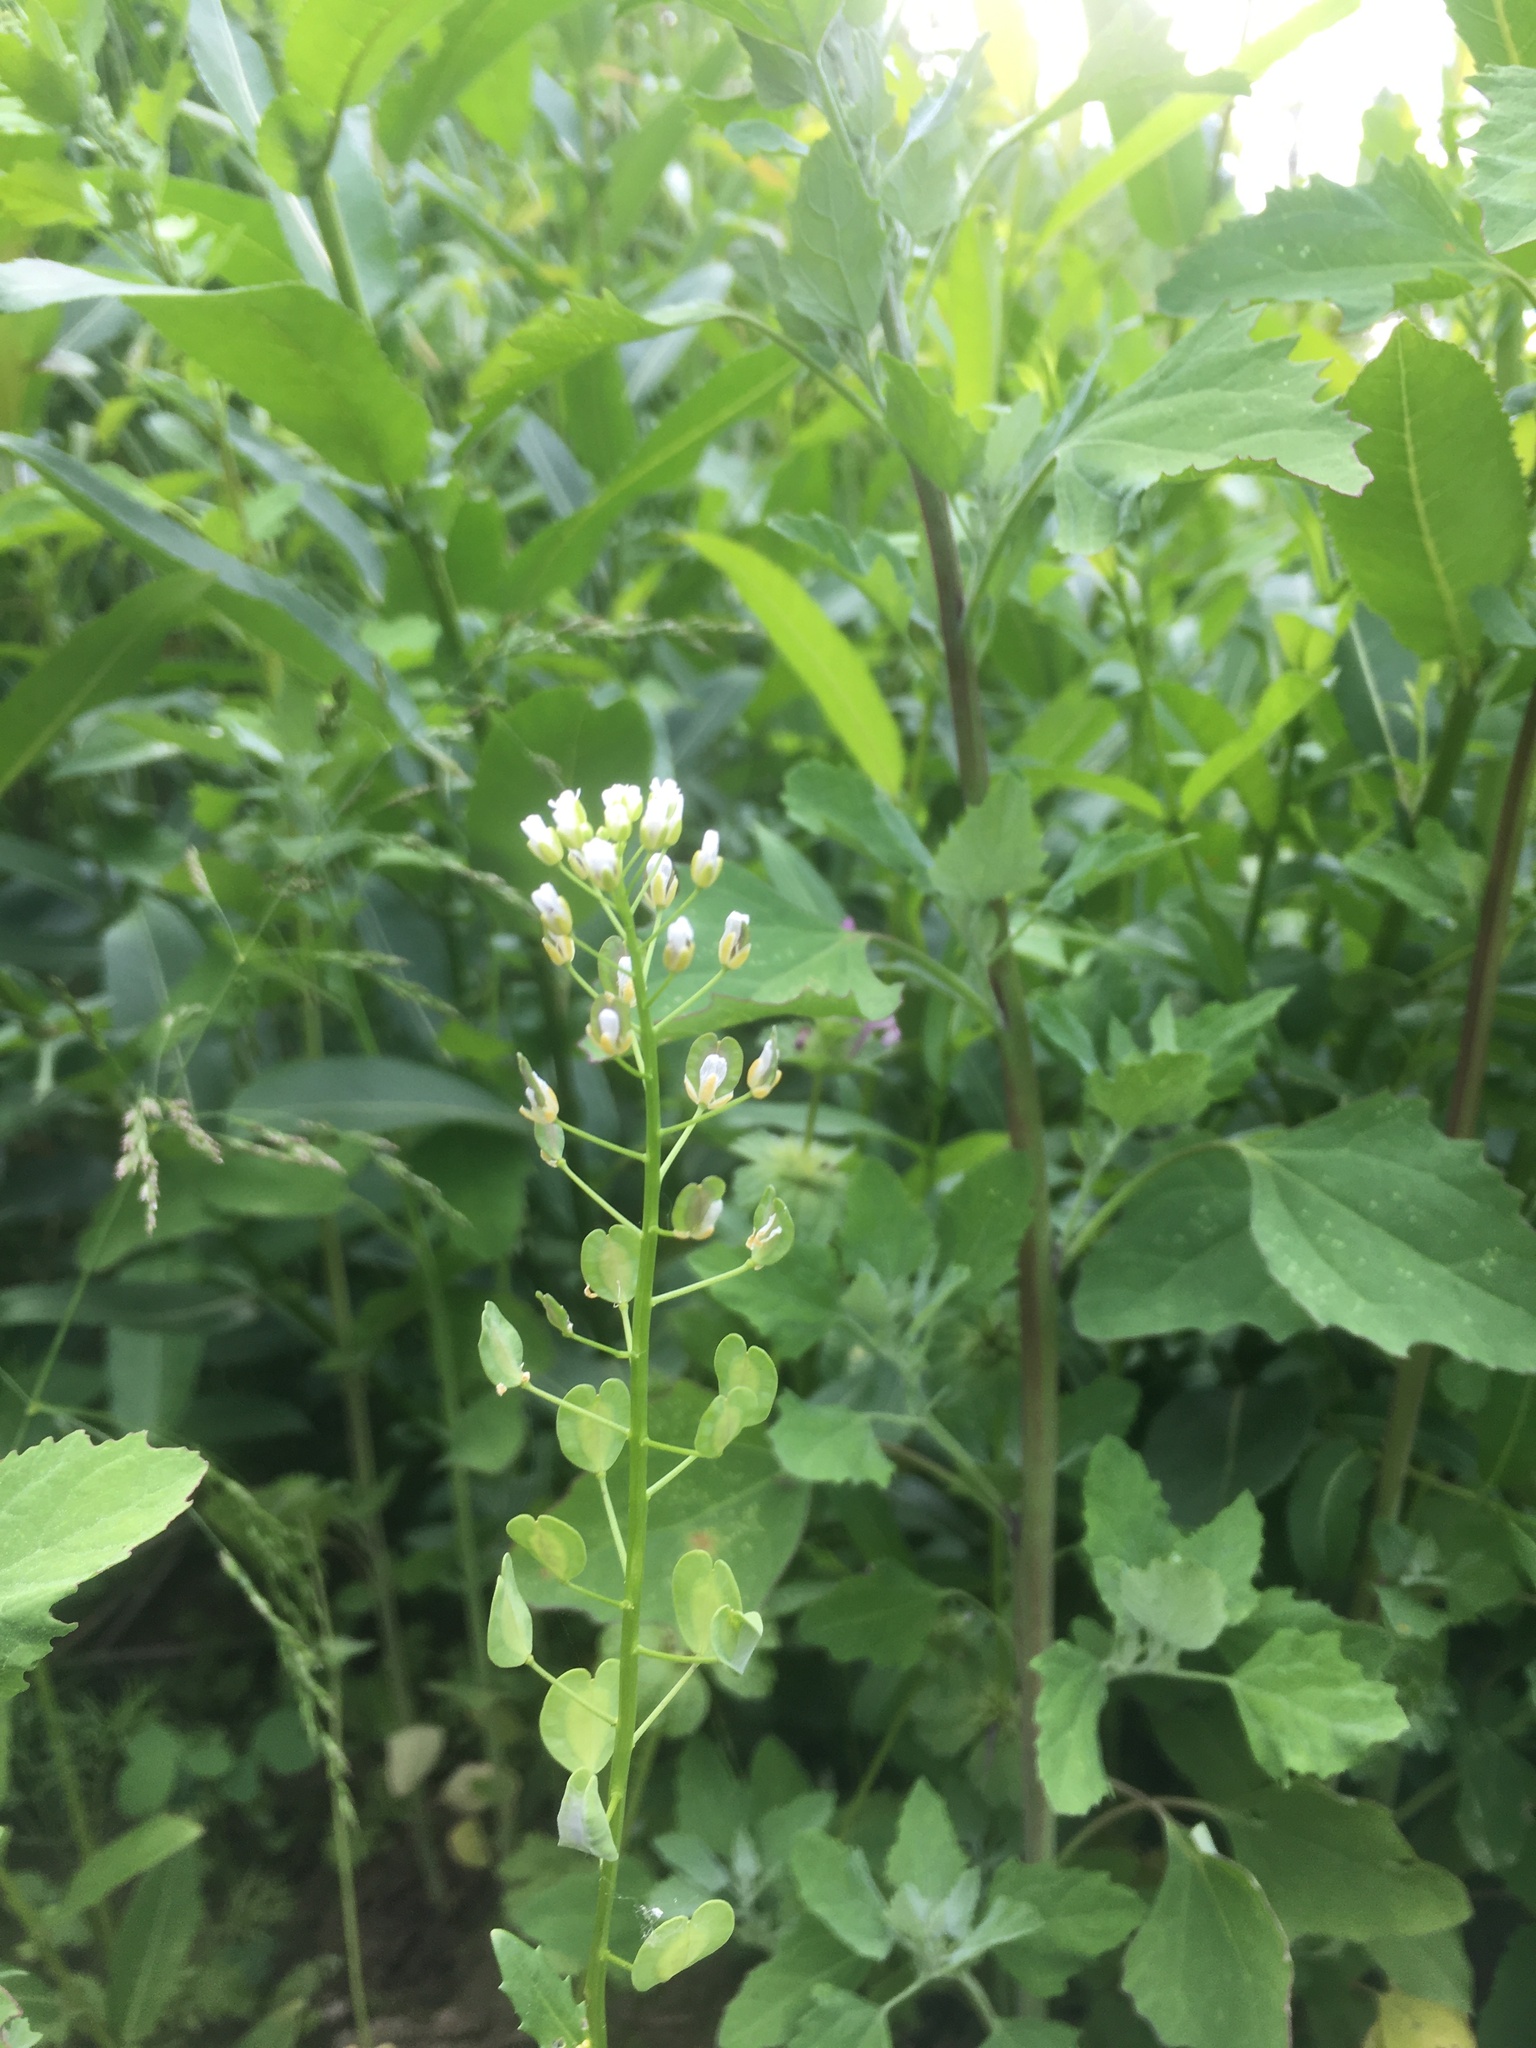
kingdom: Plantae
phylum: Tracheophyta
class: Magnoliopsida
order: Brassicales
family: Brassicaceae
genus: Thlaspi
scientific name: Thlaspi arvense
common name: Field pennycress
